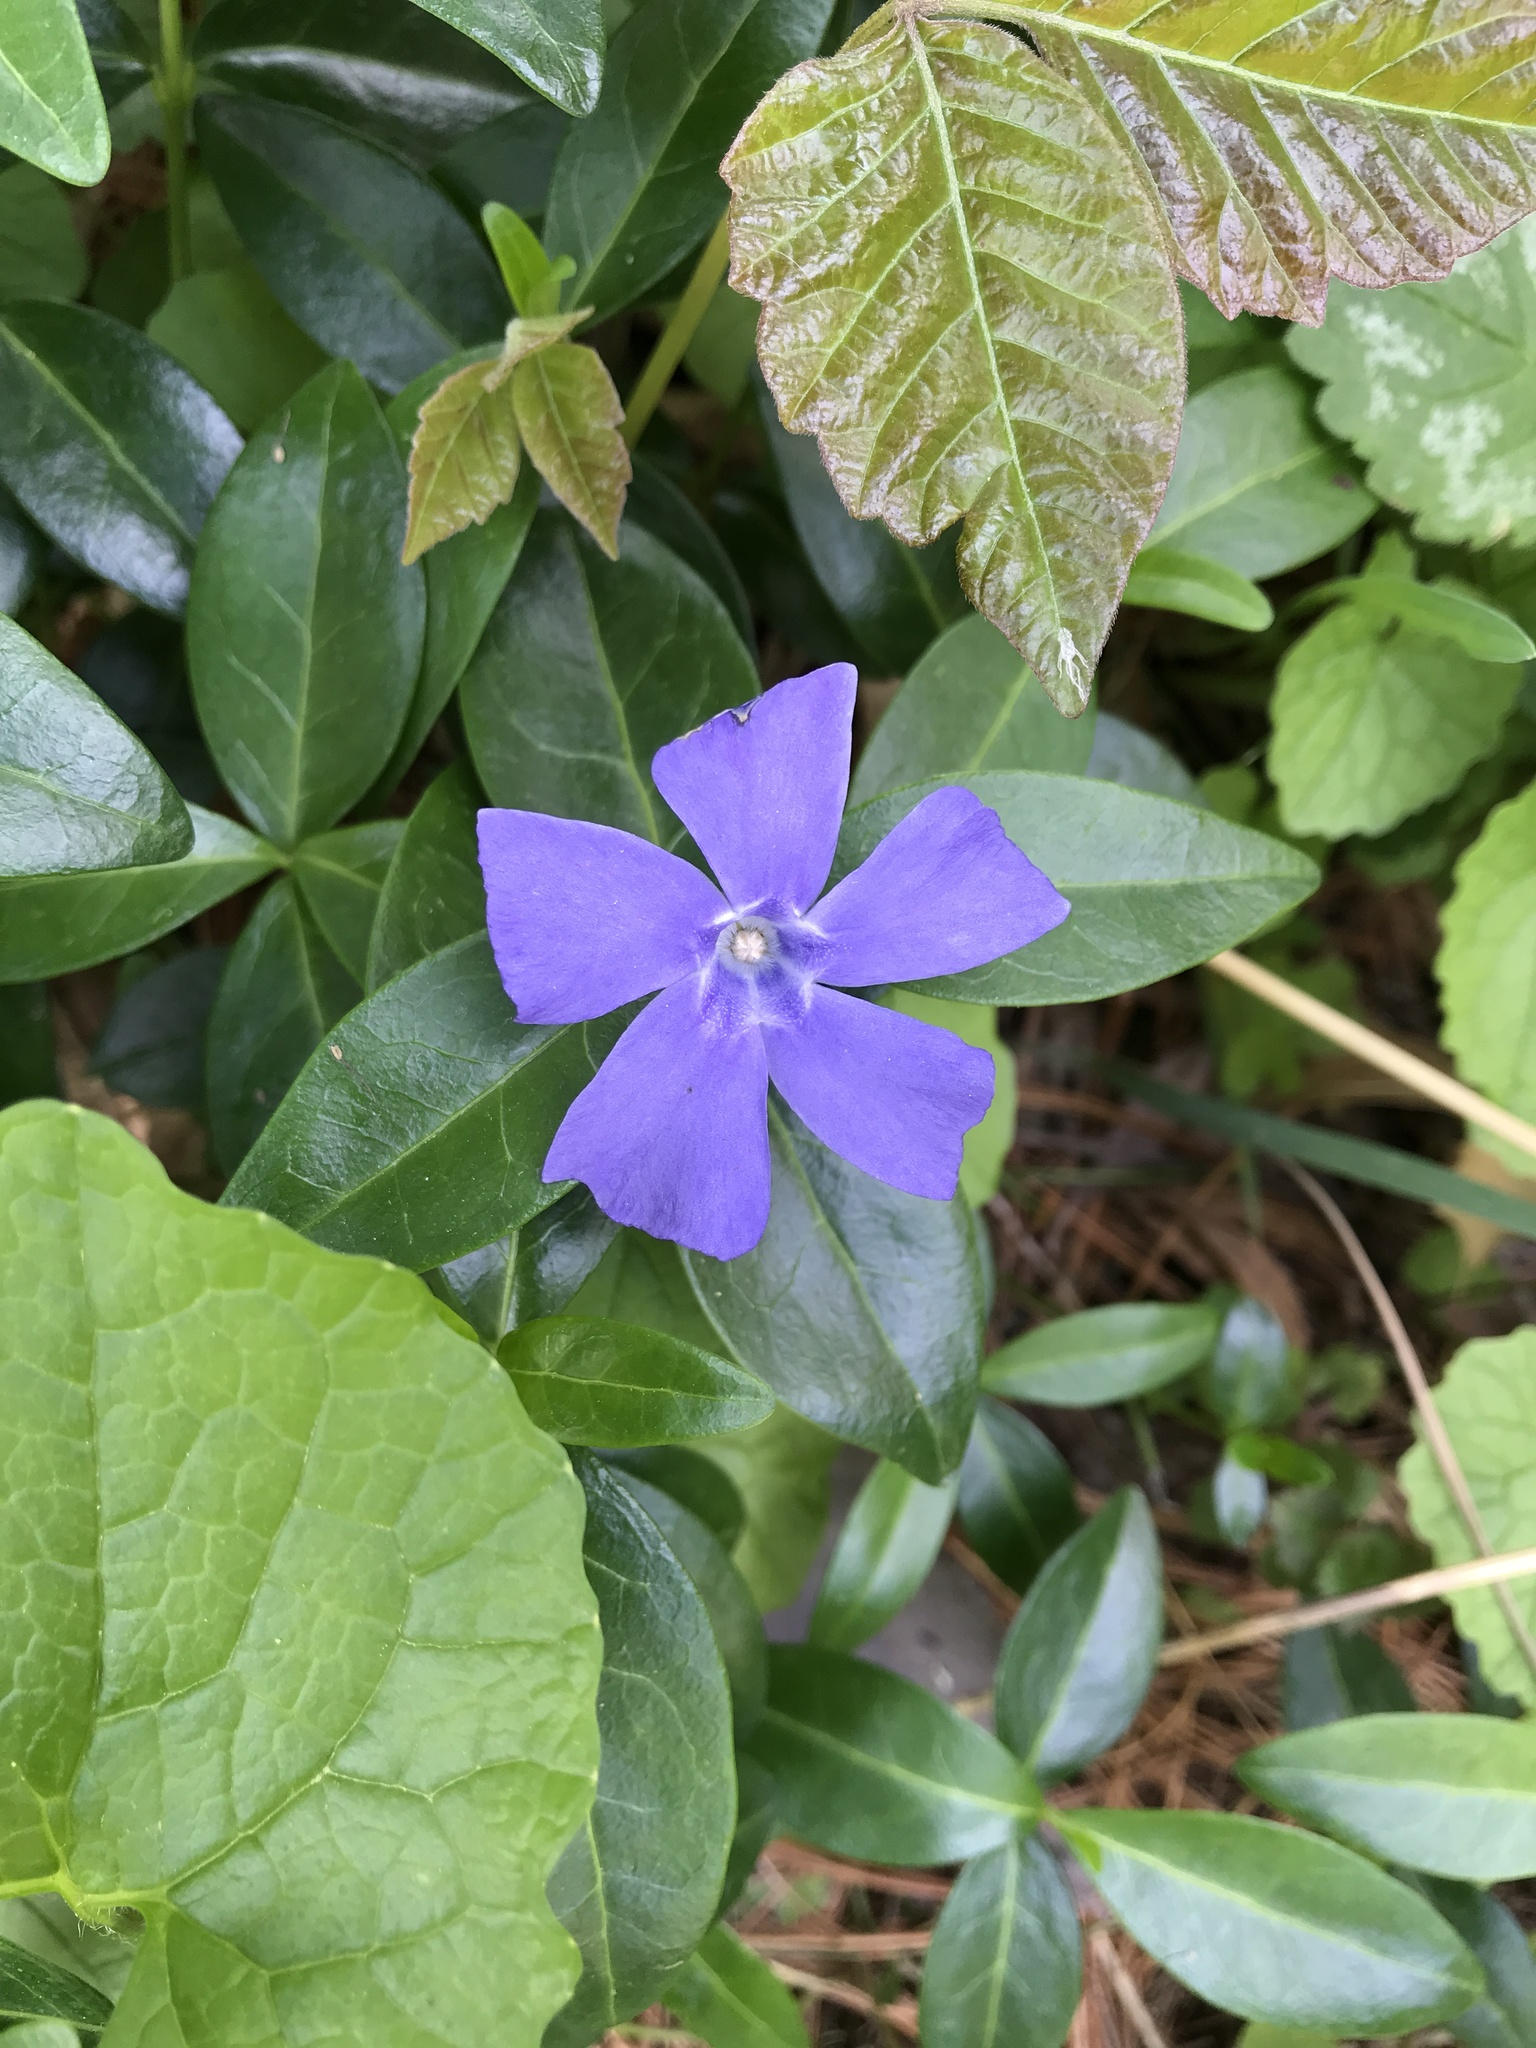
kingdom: Plantae
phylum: Tracheophyta
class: Magnoliopsida
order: Gentianales
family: Apocynaceae
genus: Vinca
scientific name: Vinca minor
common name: Lesser periwinkle
